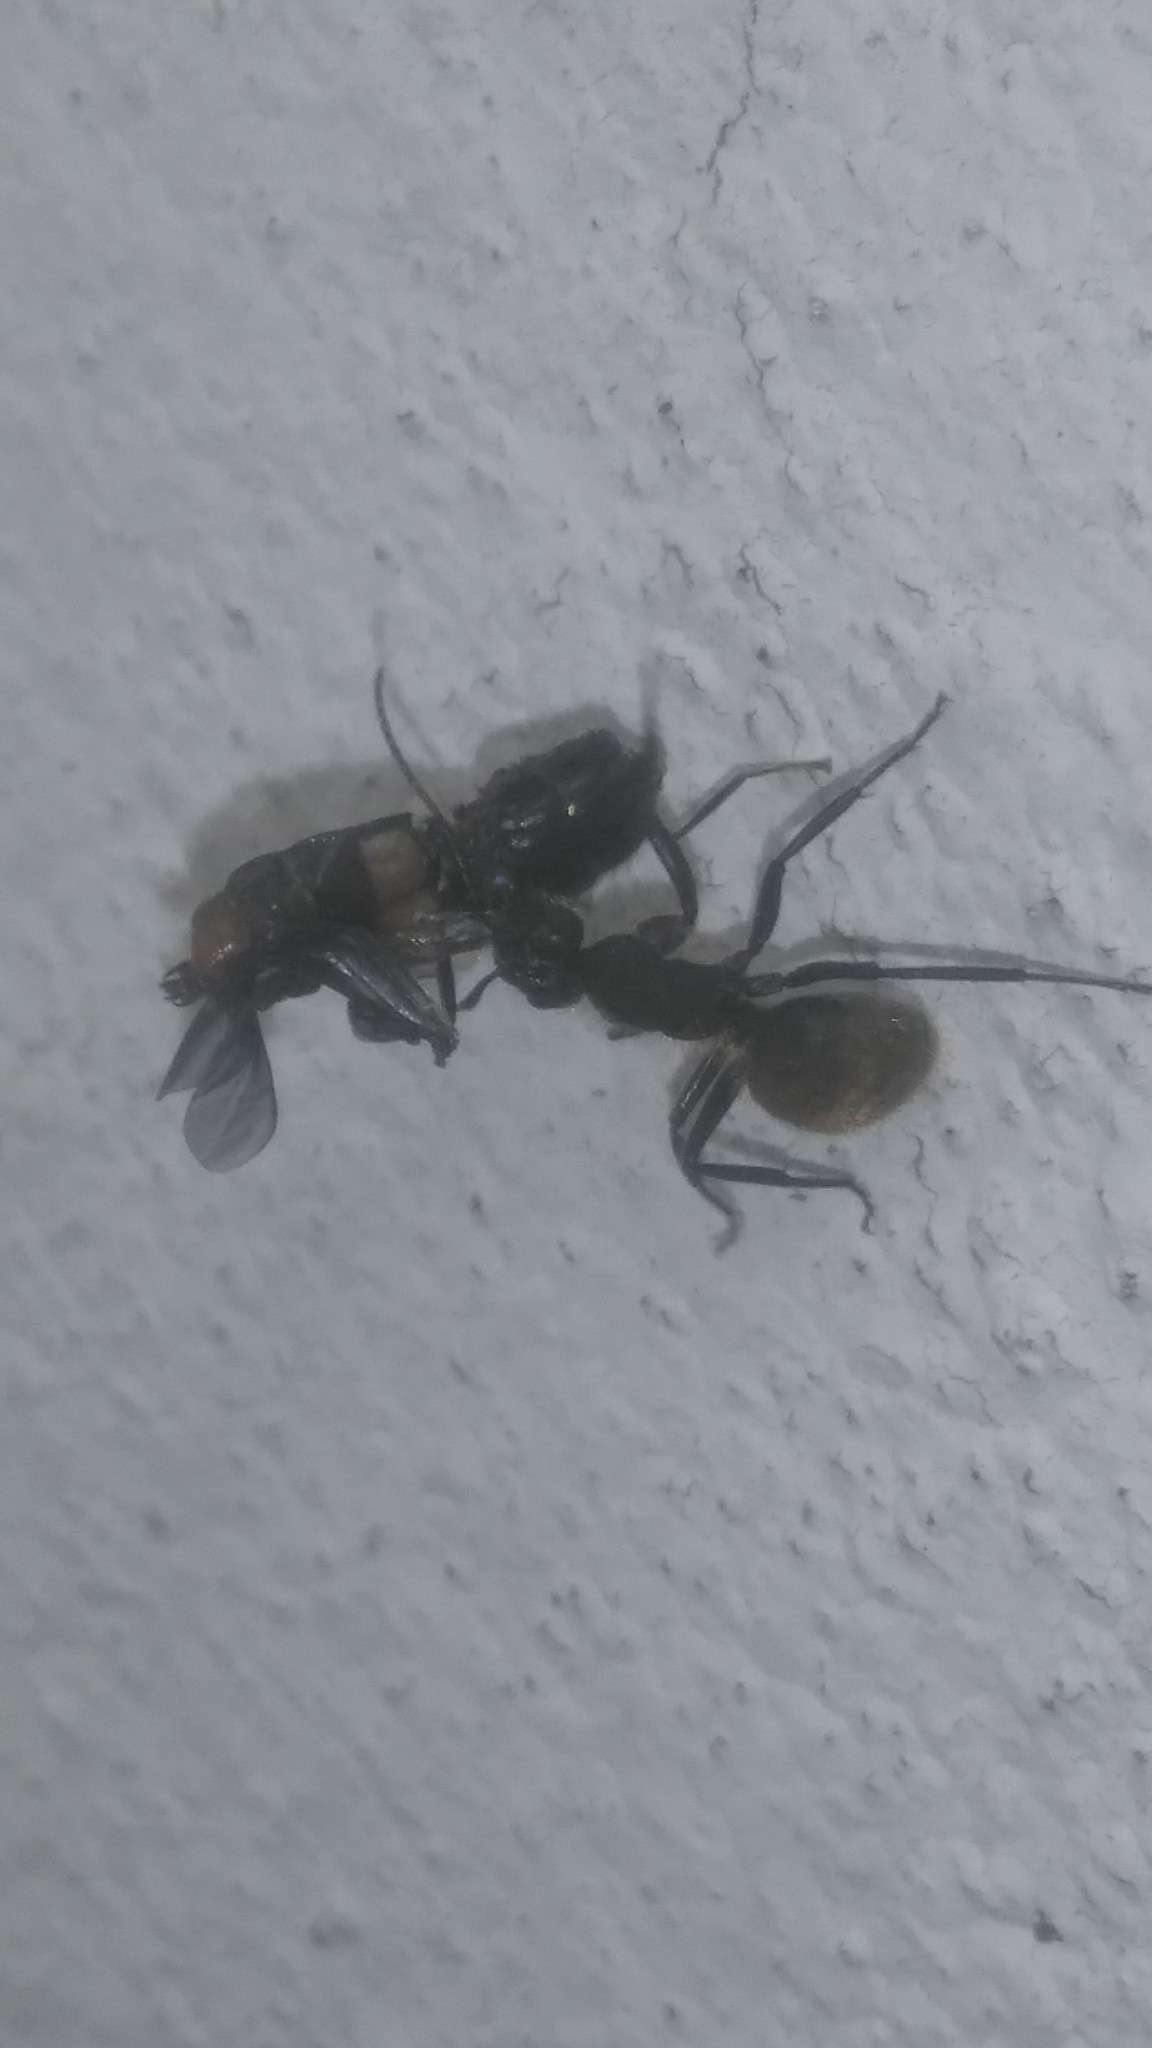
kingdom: Animalia
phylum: Arthropoda
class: Insecta
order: Diptera
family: Stratiomyidae
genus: Hermetia
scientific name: Hermetia illucens
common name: Black soldier fly
